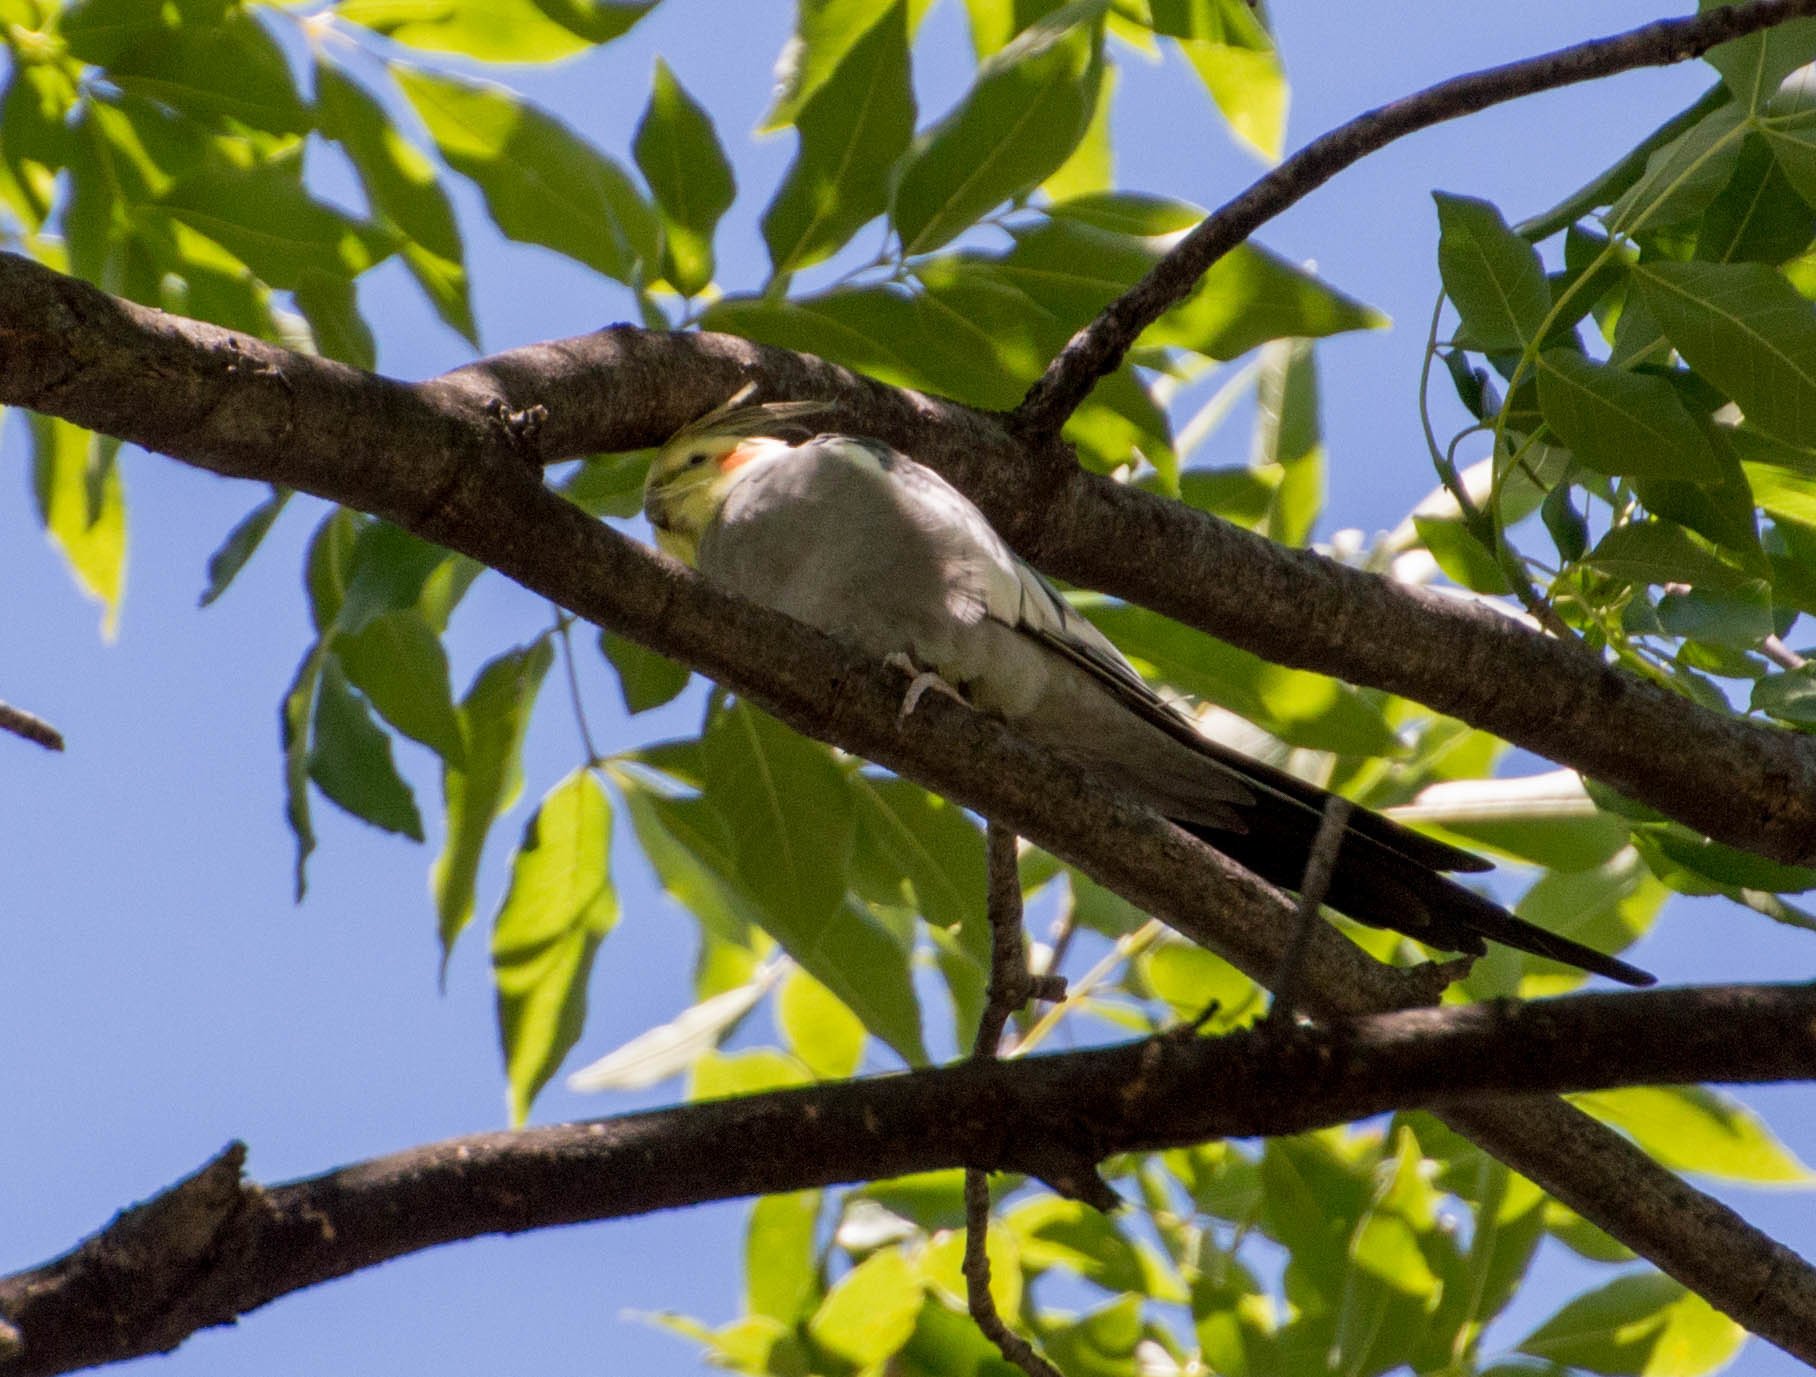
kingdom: Animalia
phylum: Chordata
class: Aves
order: Psittaciformes
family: Psittacidae
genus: Nymphicus
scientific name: Nymphicus hollandicus
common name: Cockatiel
